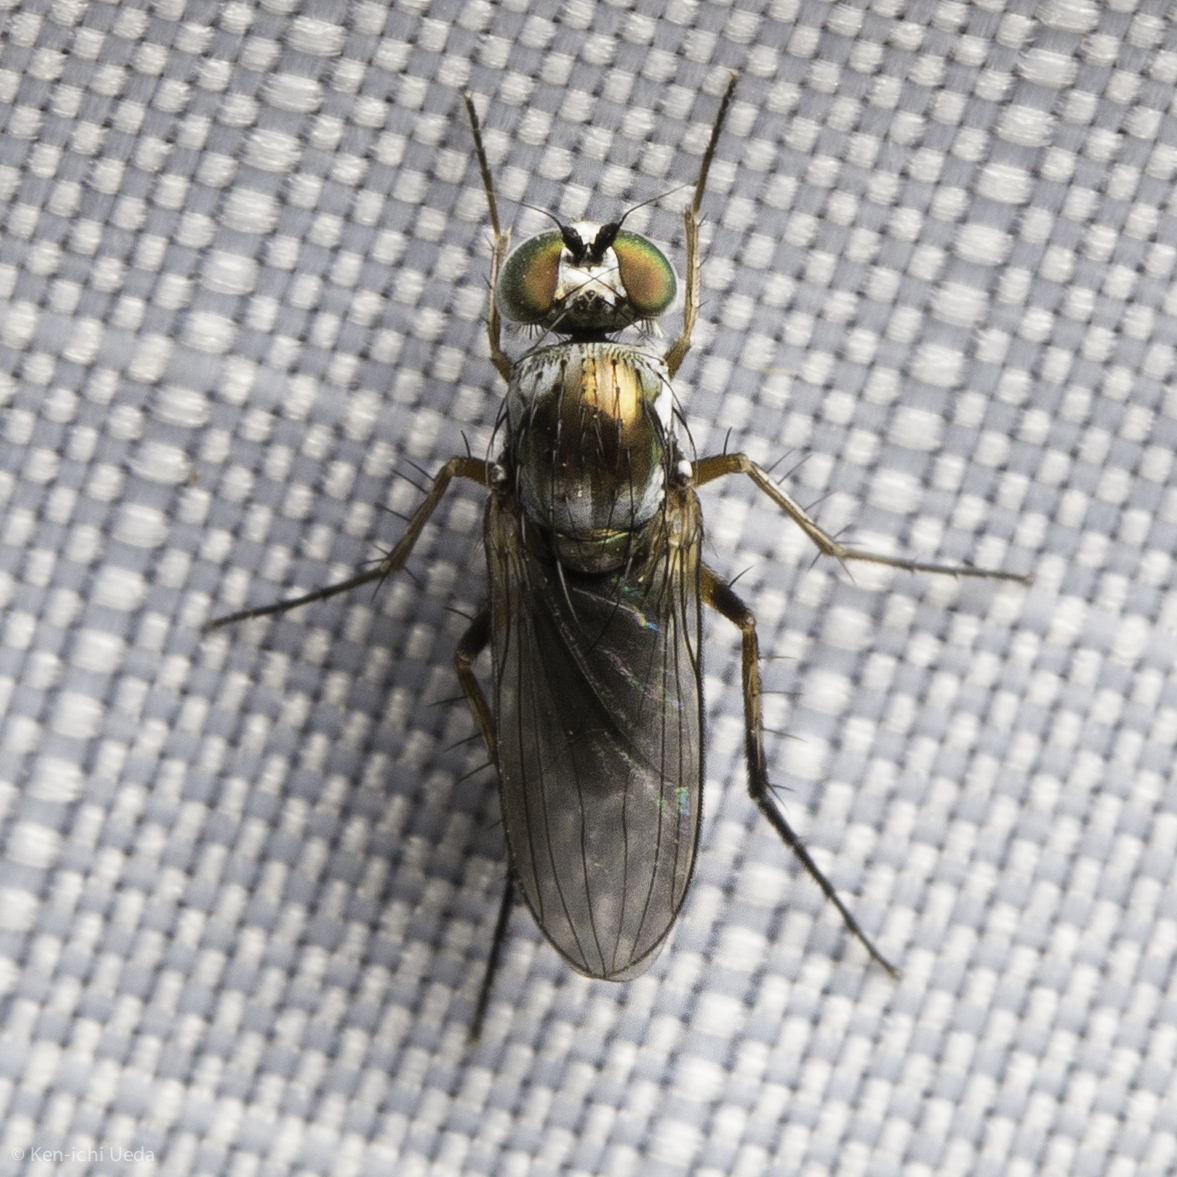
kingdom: Animalia
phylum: Arthropoda
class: Insecta
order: Diptera
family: Dolichopodidae
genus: Hercostomus
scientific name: Hercostomus chaetilamellus
